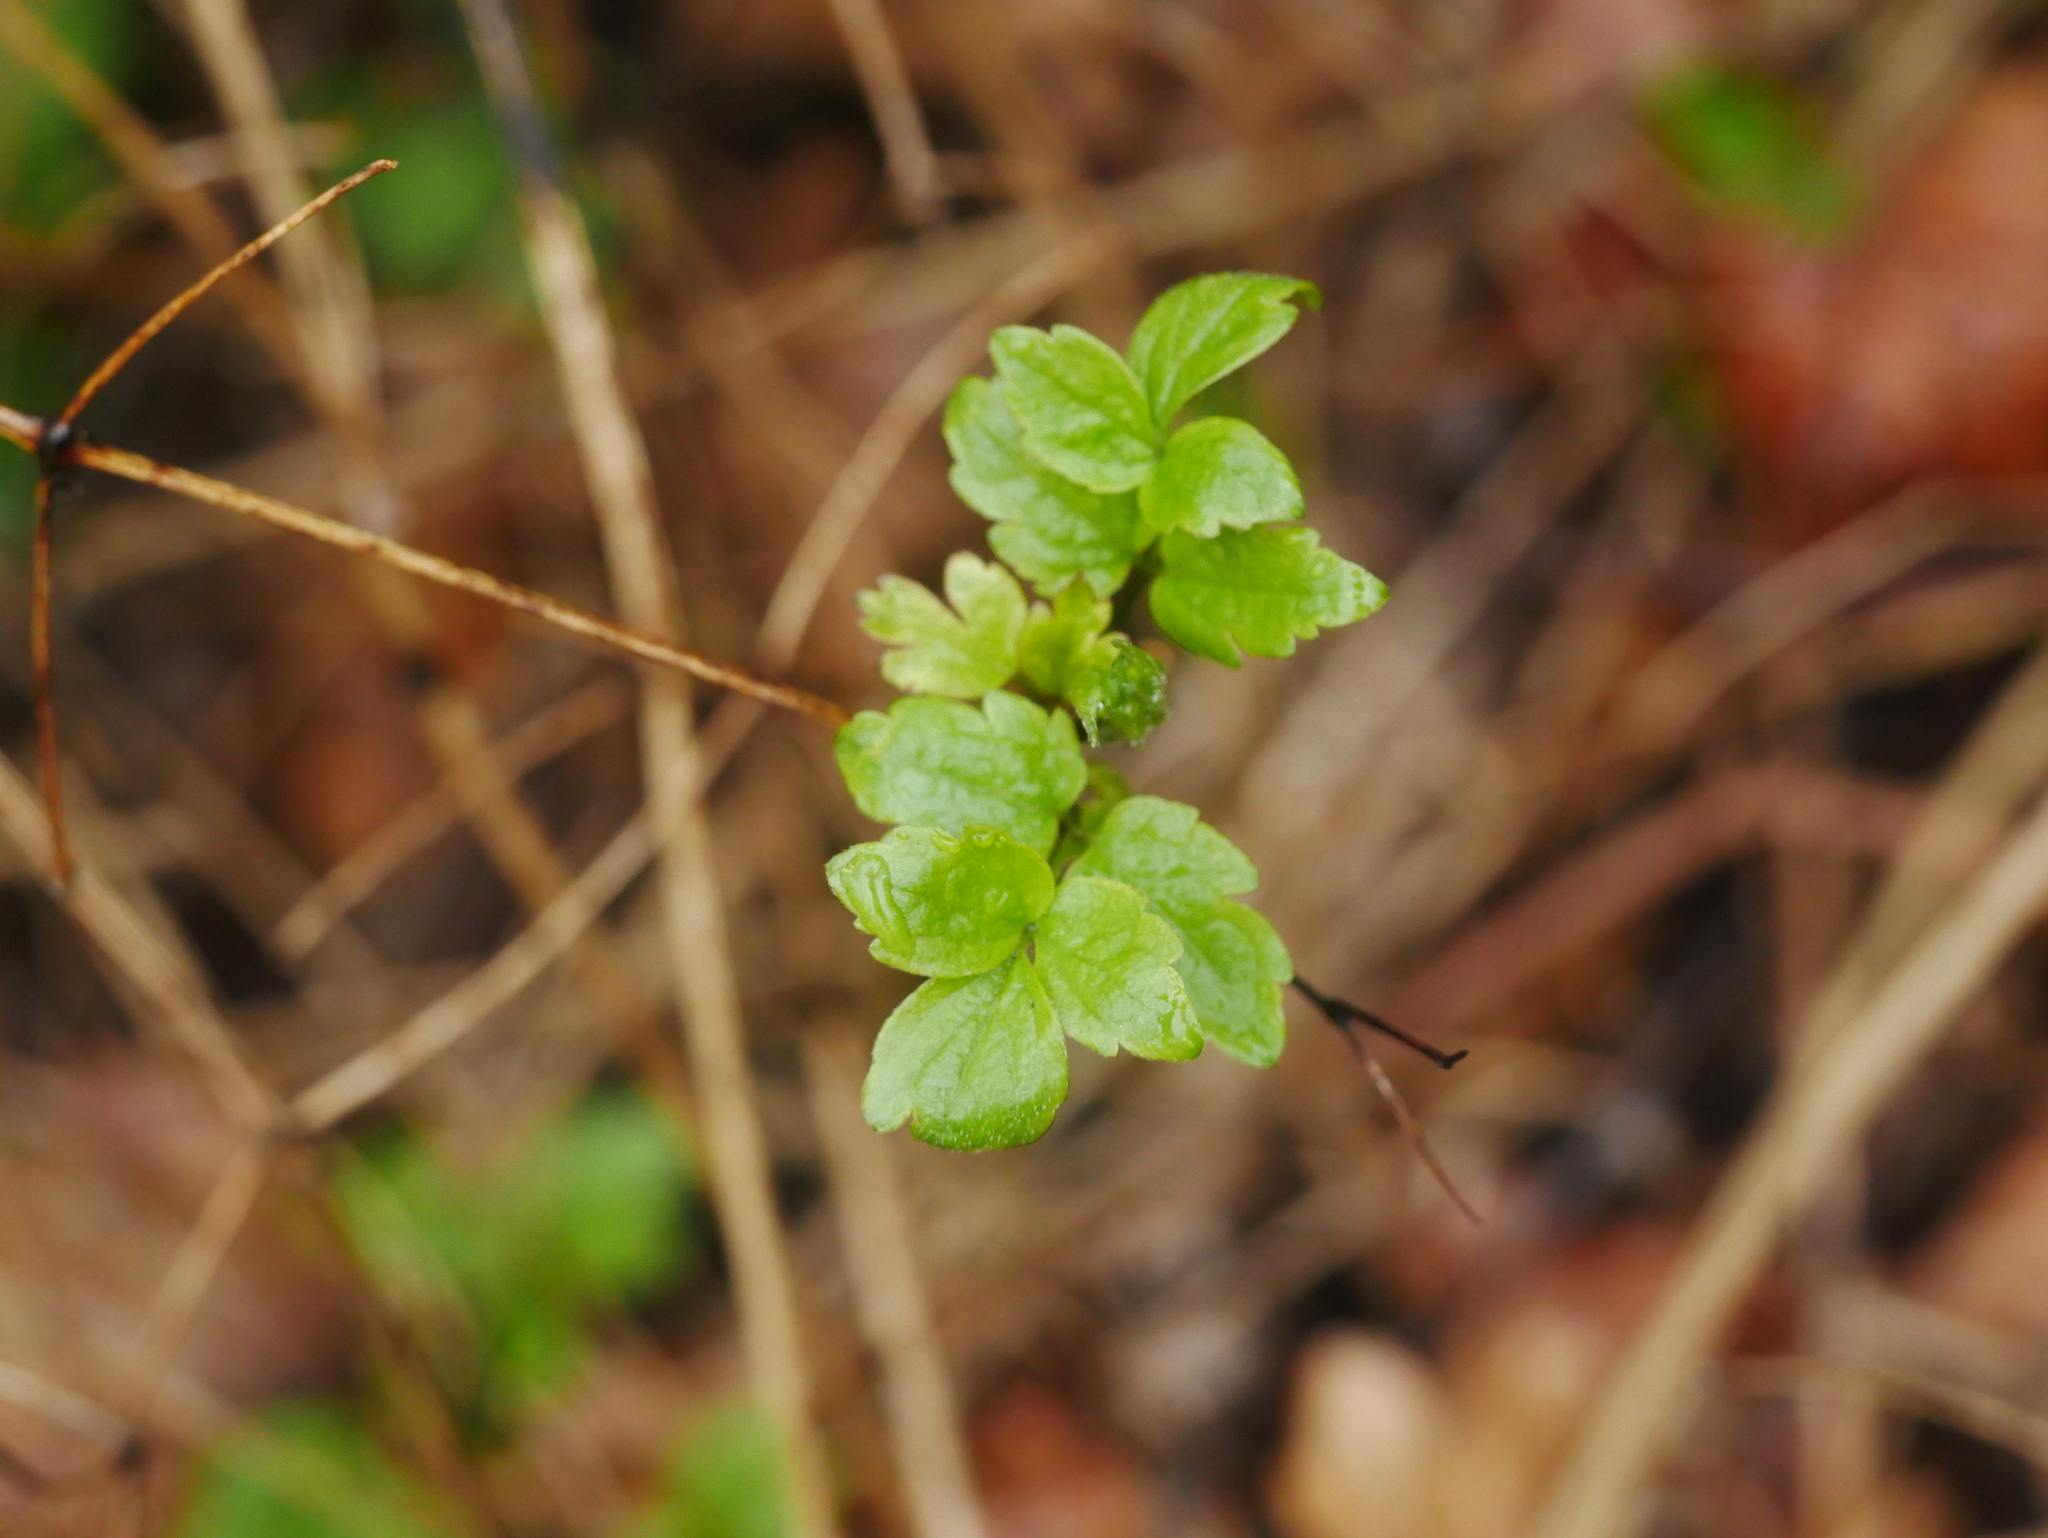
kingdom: Plantae
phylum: Tracheophyta
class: Magnoliopsida
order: Ranunculales
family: Ranunculaceae
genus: Clematis
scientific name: Clematis vitalba
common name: Evergreen clematis
